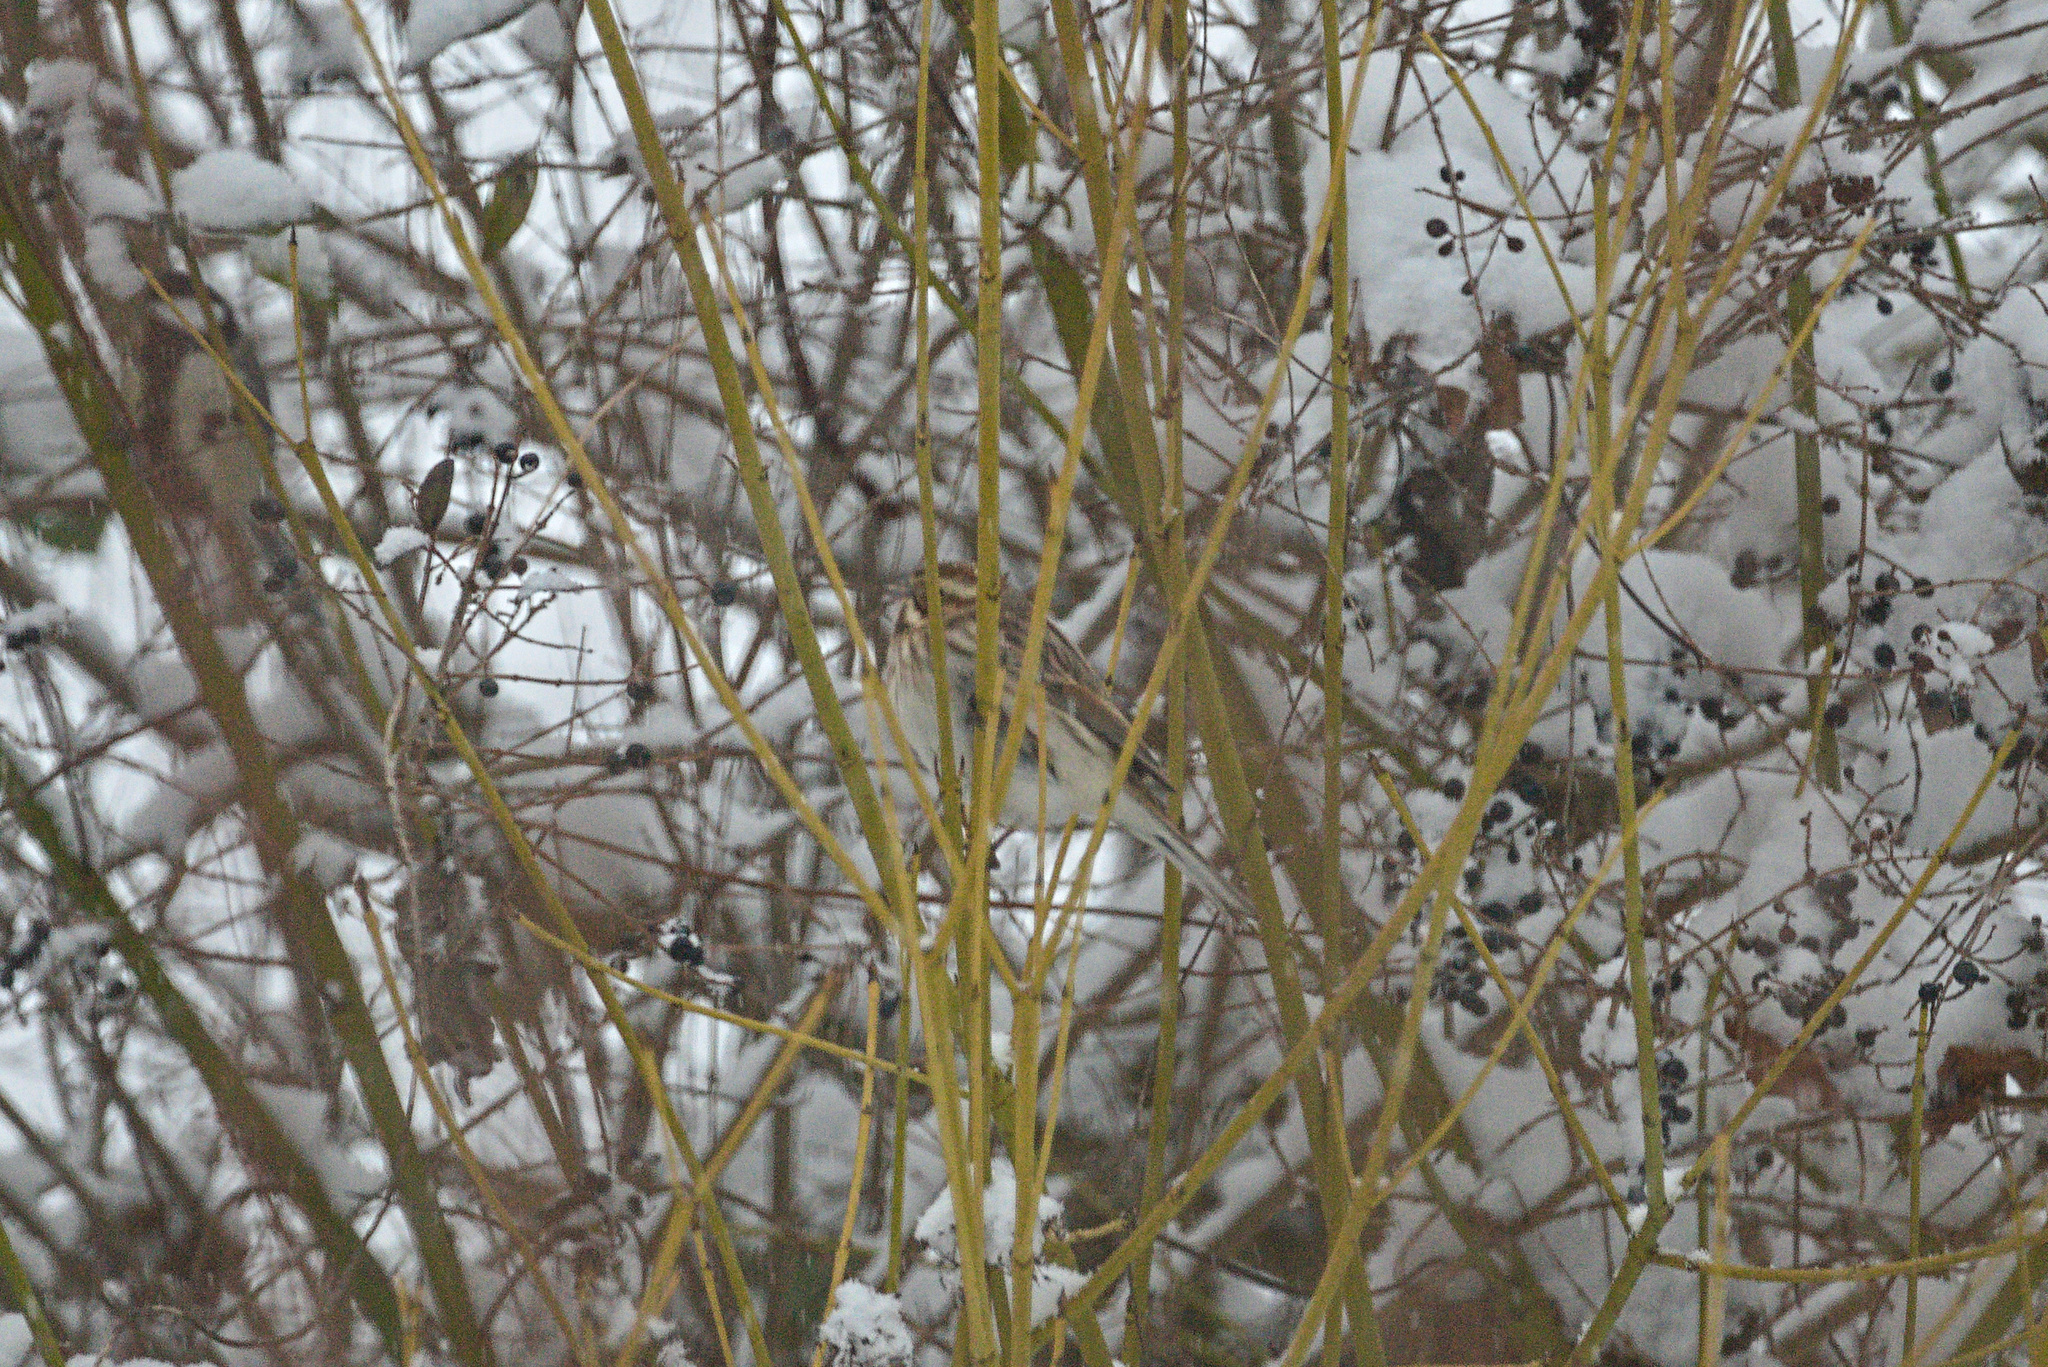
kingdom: Animalia
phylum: Chordata
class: Aves
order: Passeriformes
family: Emberizidae
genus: Emberiza
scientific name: Emberiza schoeniclus
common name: Reed bunting
